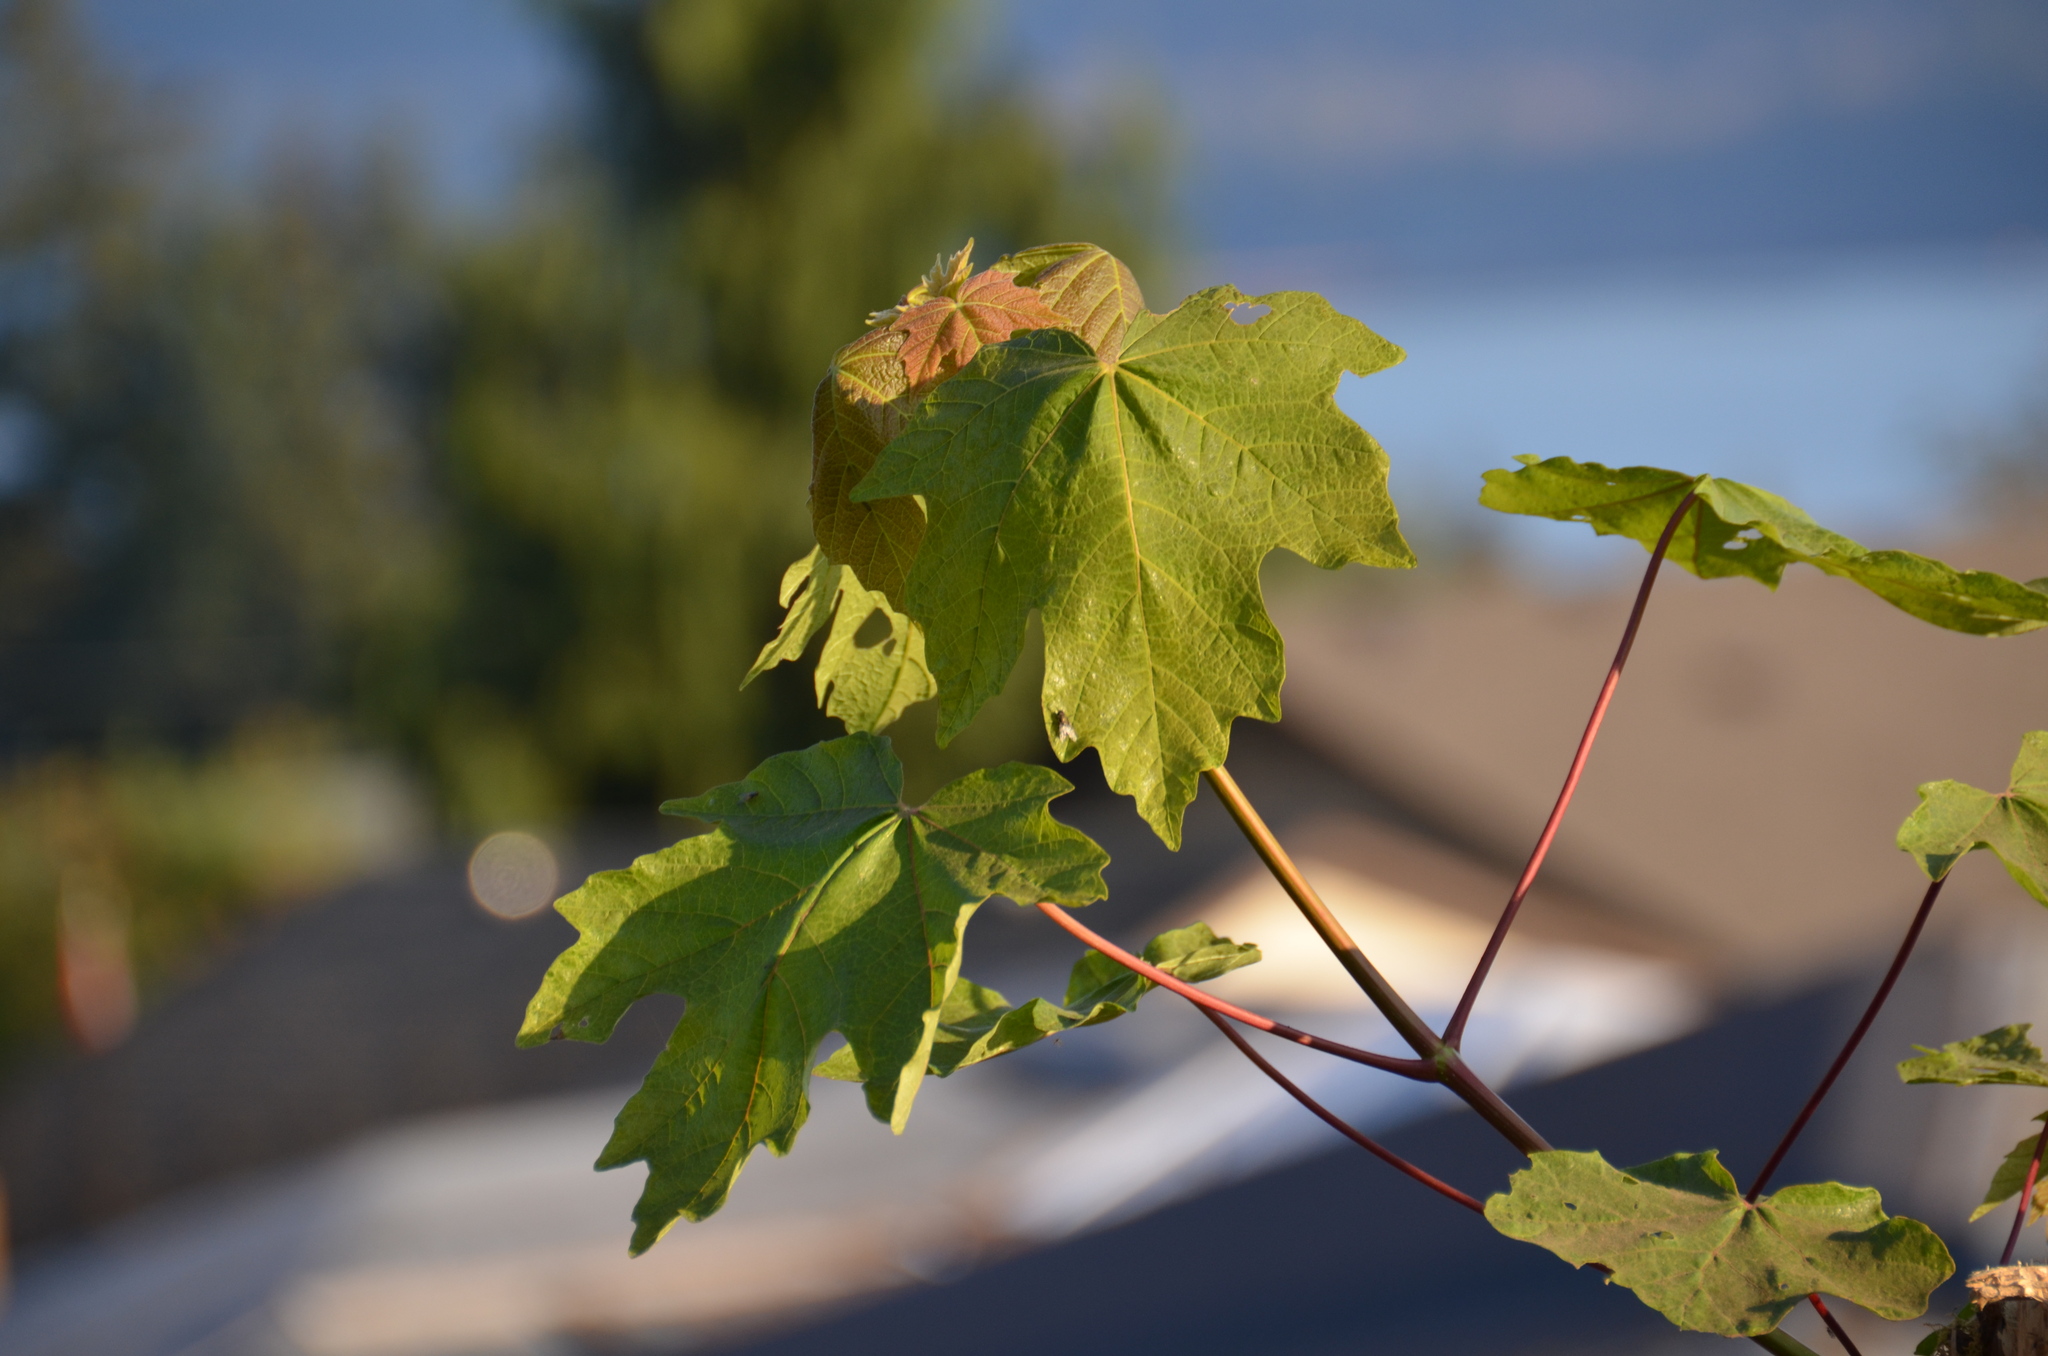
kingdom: Plantae
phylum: Tracheophyta
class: Magnoliopsida
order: Sapindales
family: Sapindaceae
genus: Acer
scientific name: Acer macrophyllum
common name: Oregon maple
